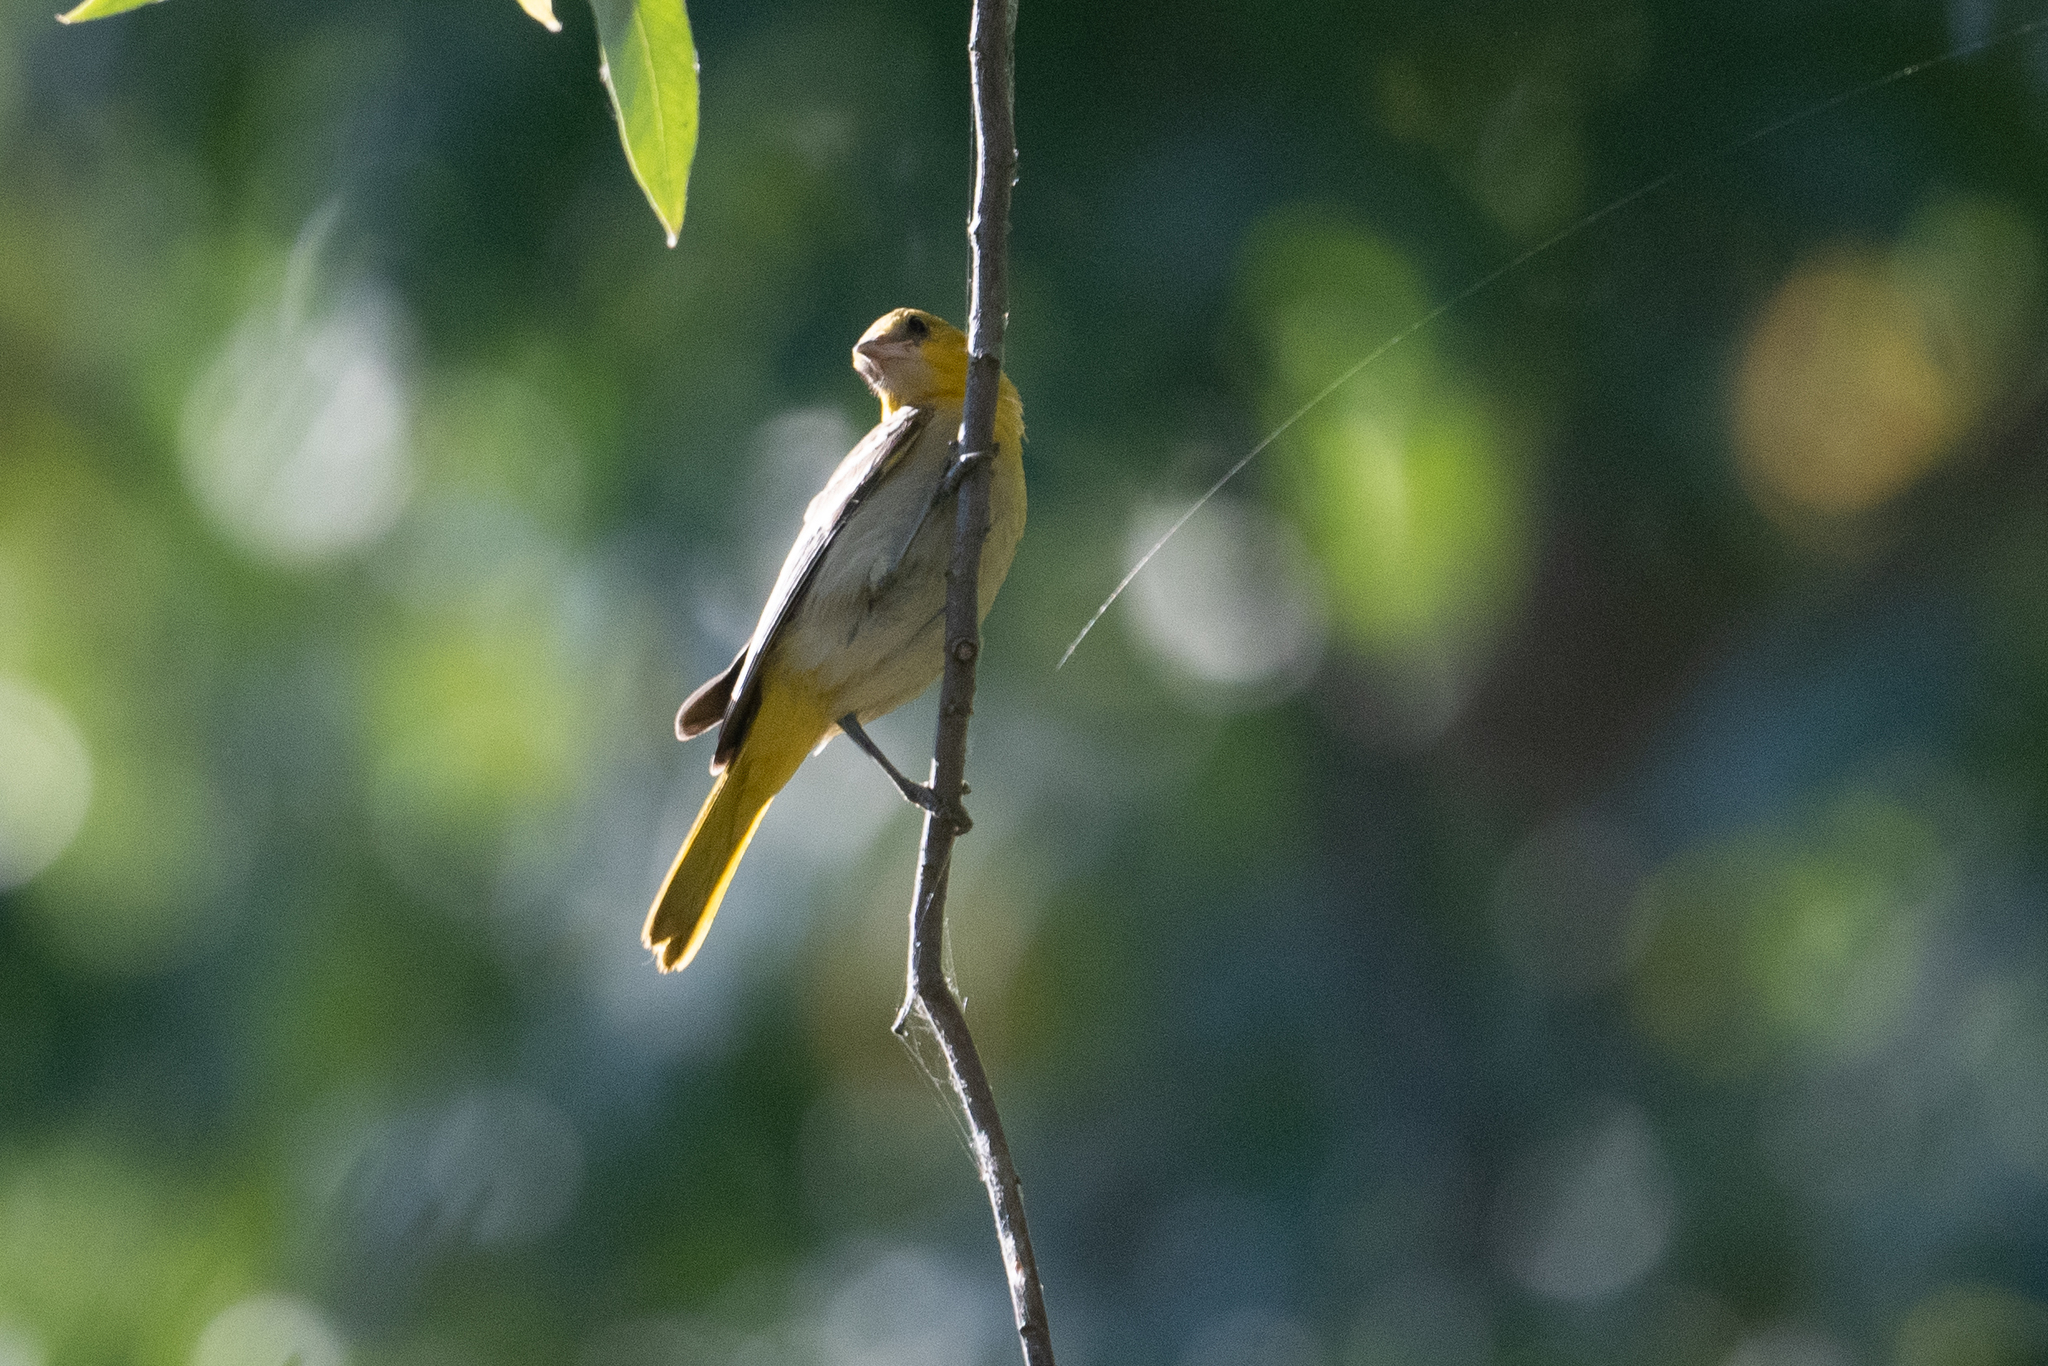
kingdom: Animalia
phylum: Chordata
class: Aves
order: Passeriformes
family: Icteridae
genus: Icterus
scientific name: Icterus bullockii
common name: Bullock's oriole
